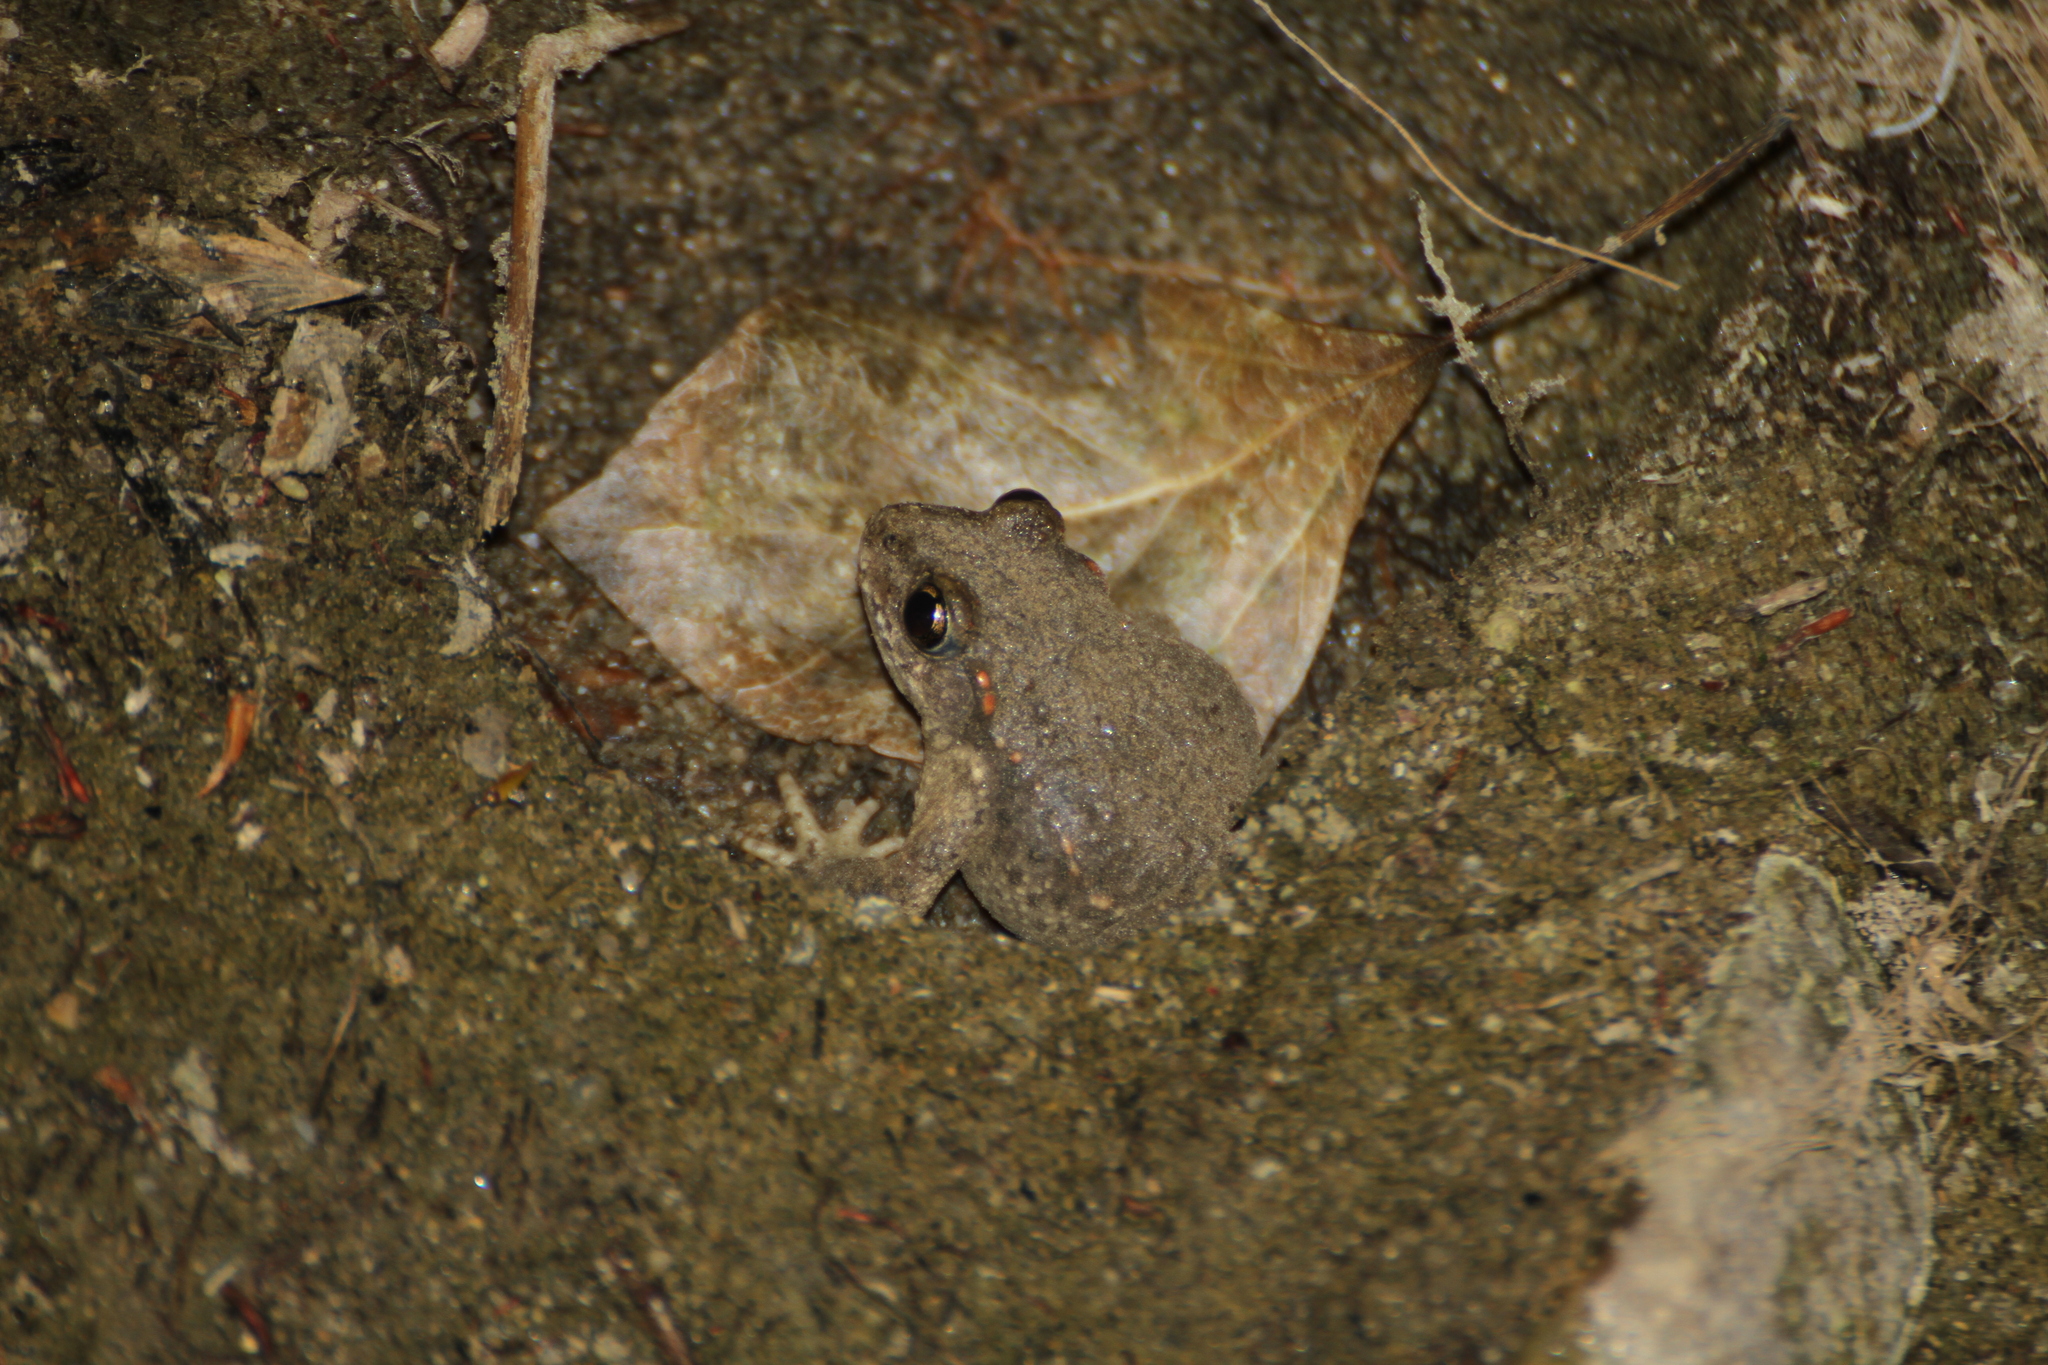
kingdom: Animalia
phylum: Chordata
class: Amphibia
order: Anura
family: Alytidae
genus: Alytes
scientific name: Alytes obstetricans
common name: Midwife toad
